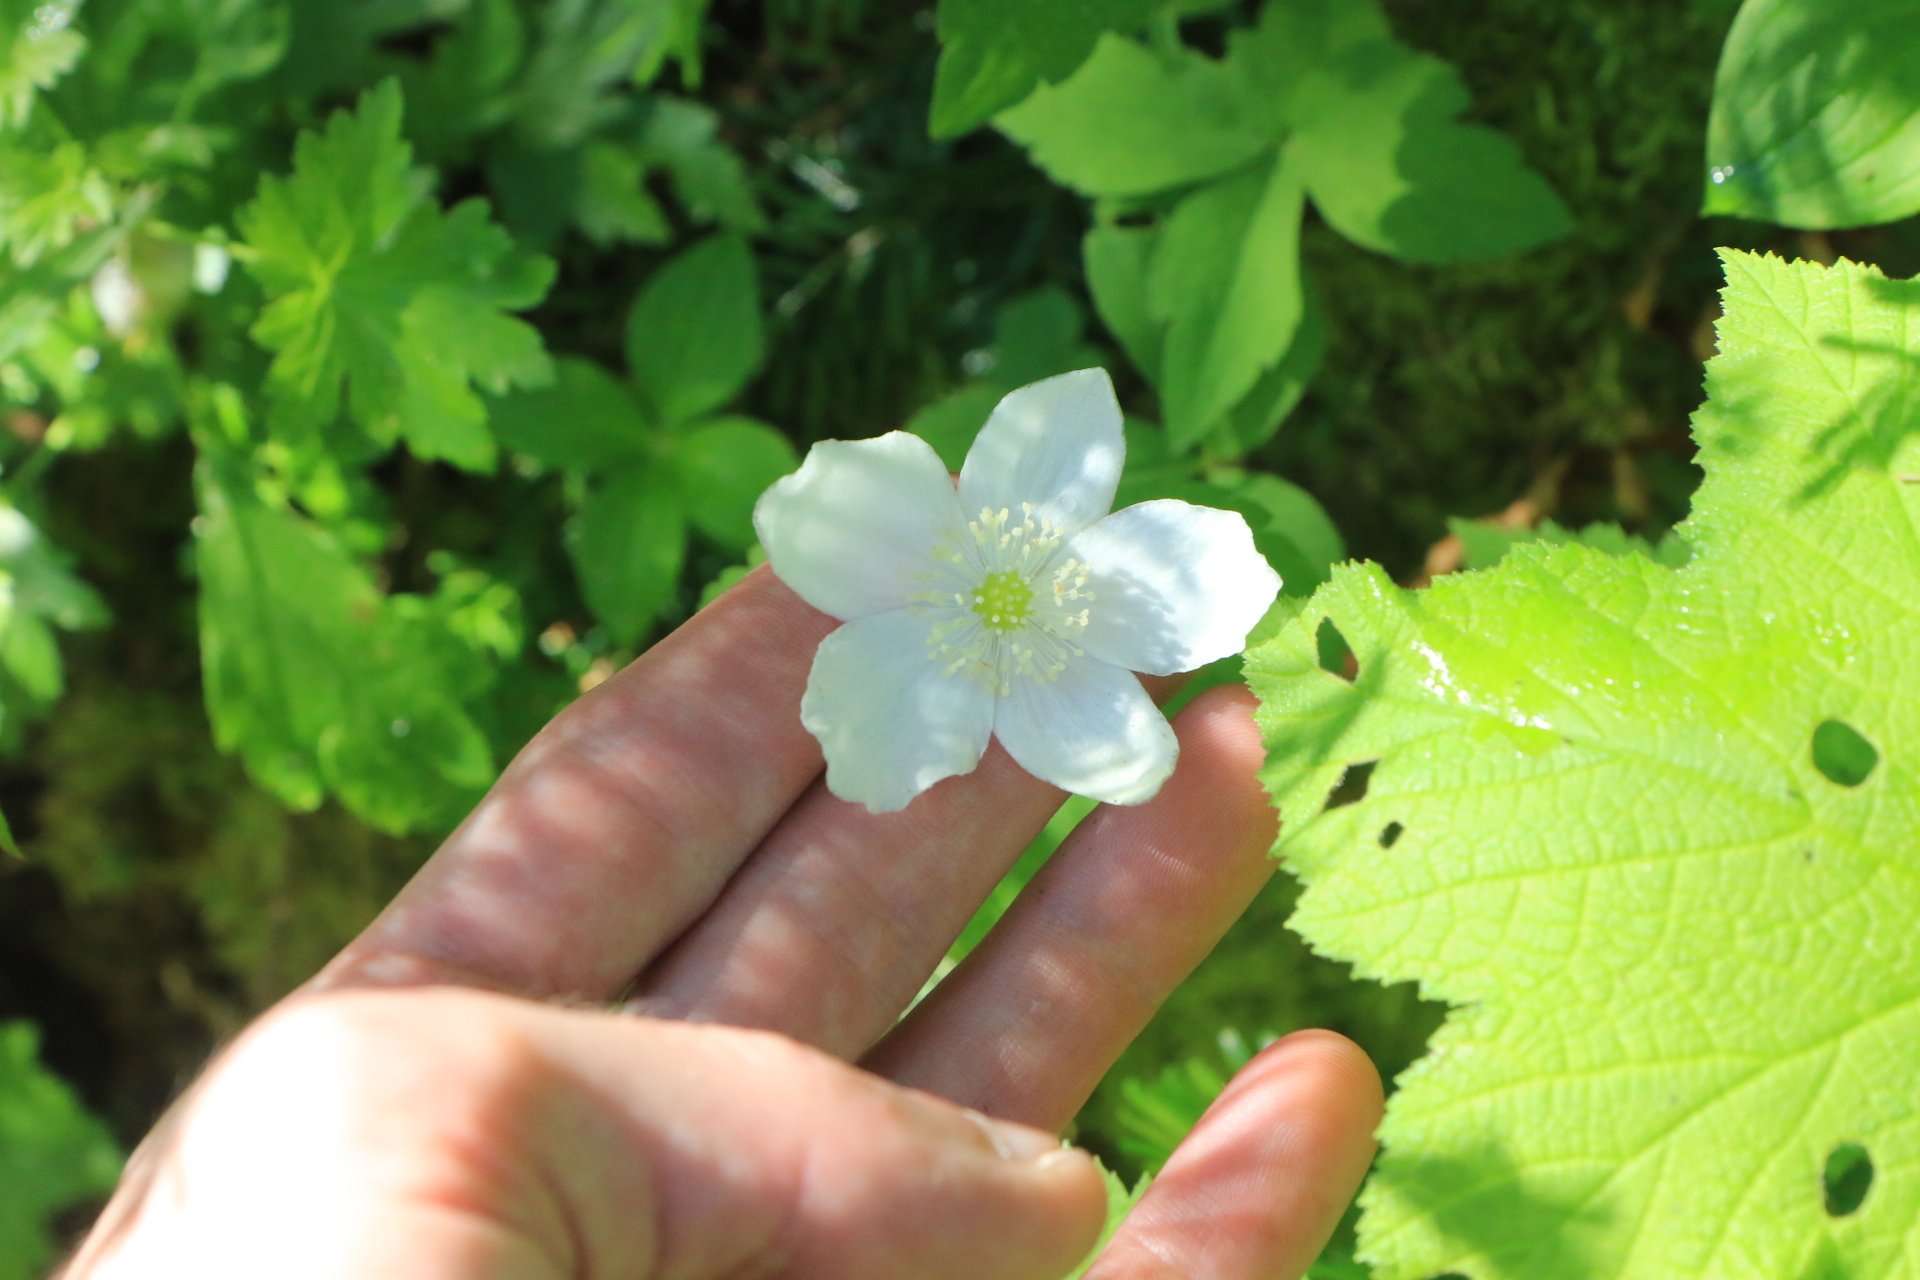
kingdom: Plantae
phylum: Tracheophyta
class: Magnoliopsida
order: Ranunculales
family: Ranunculaceae
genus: Anemonastrum
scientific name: Anemonastrum deltoideum
